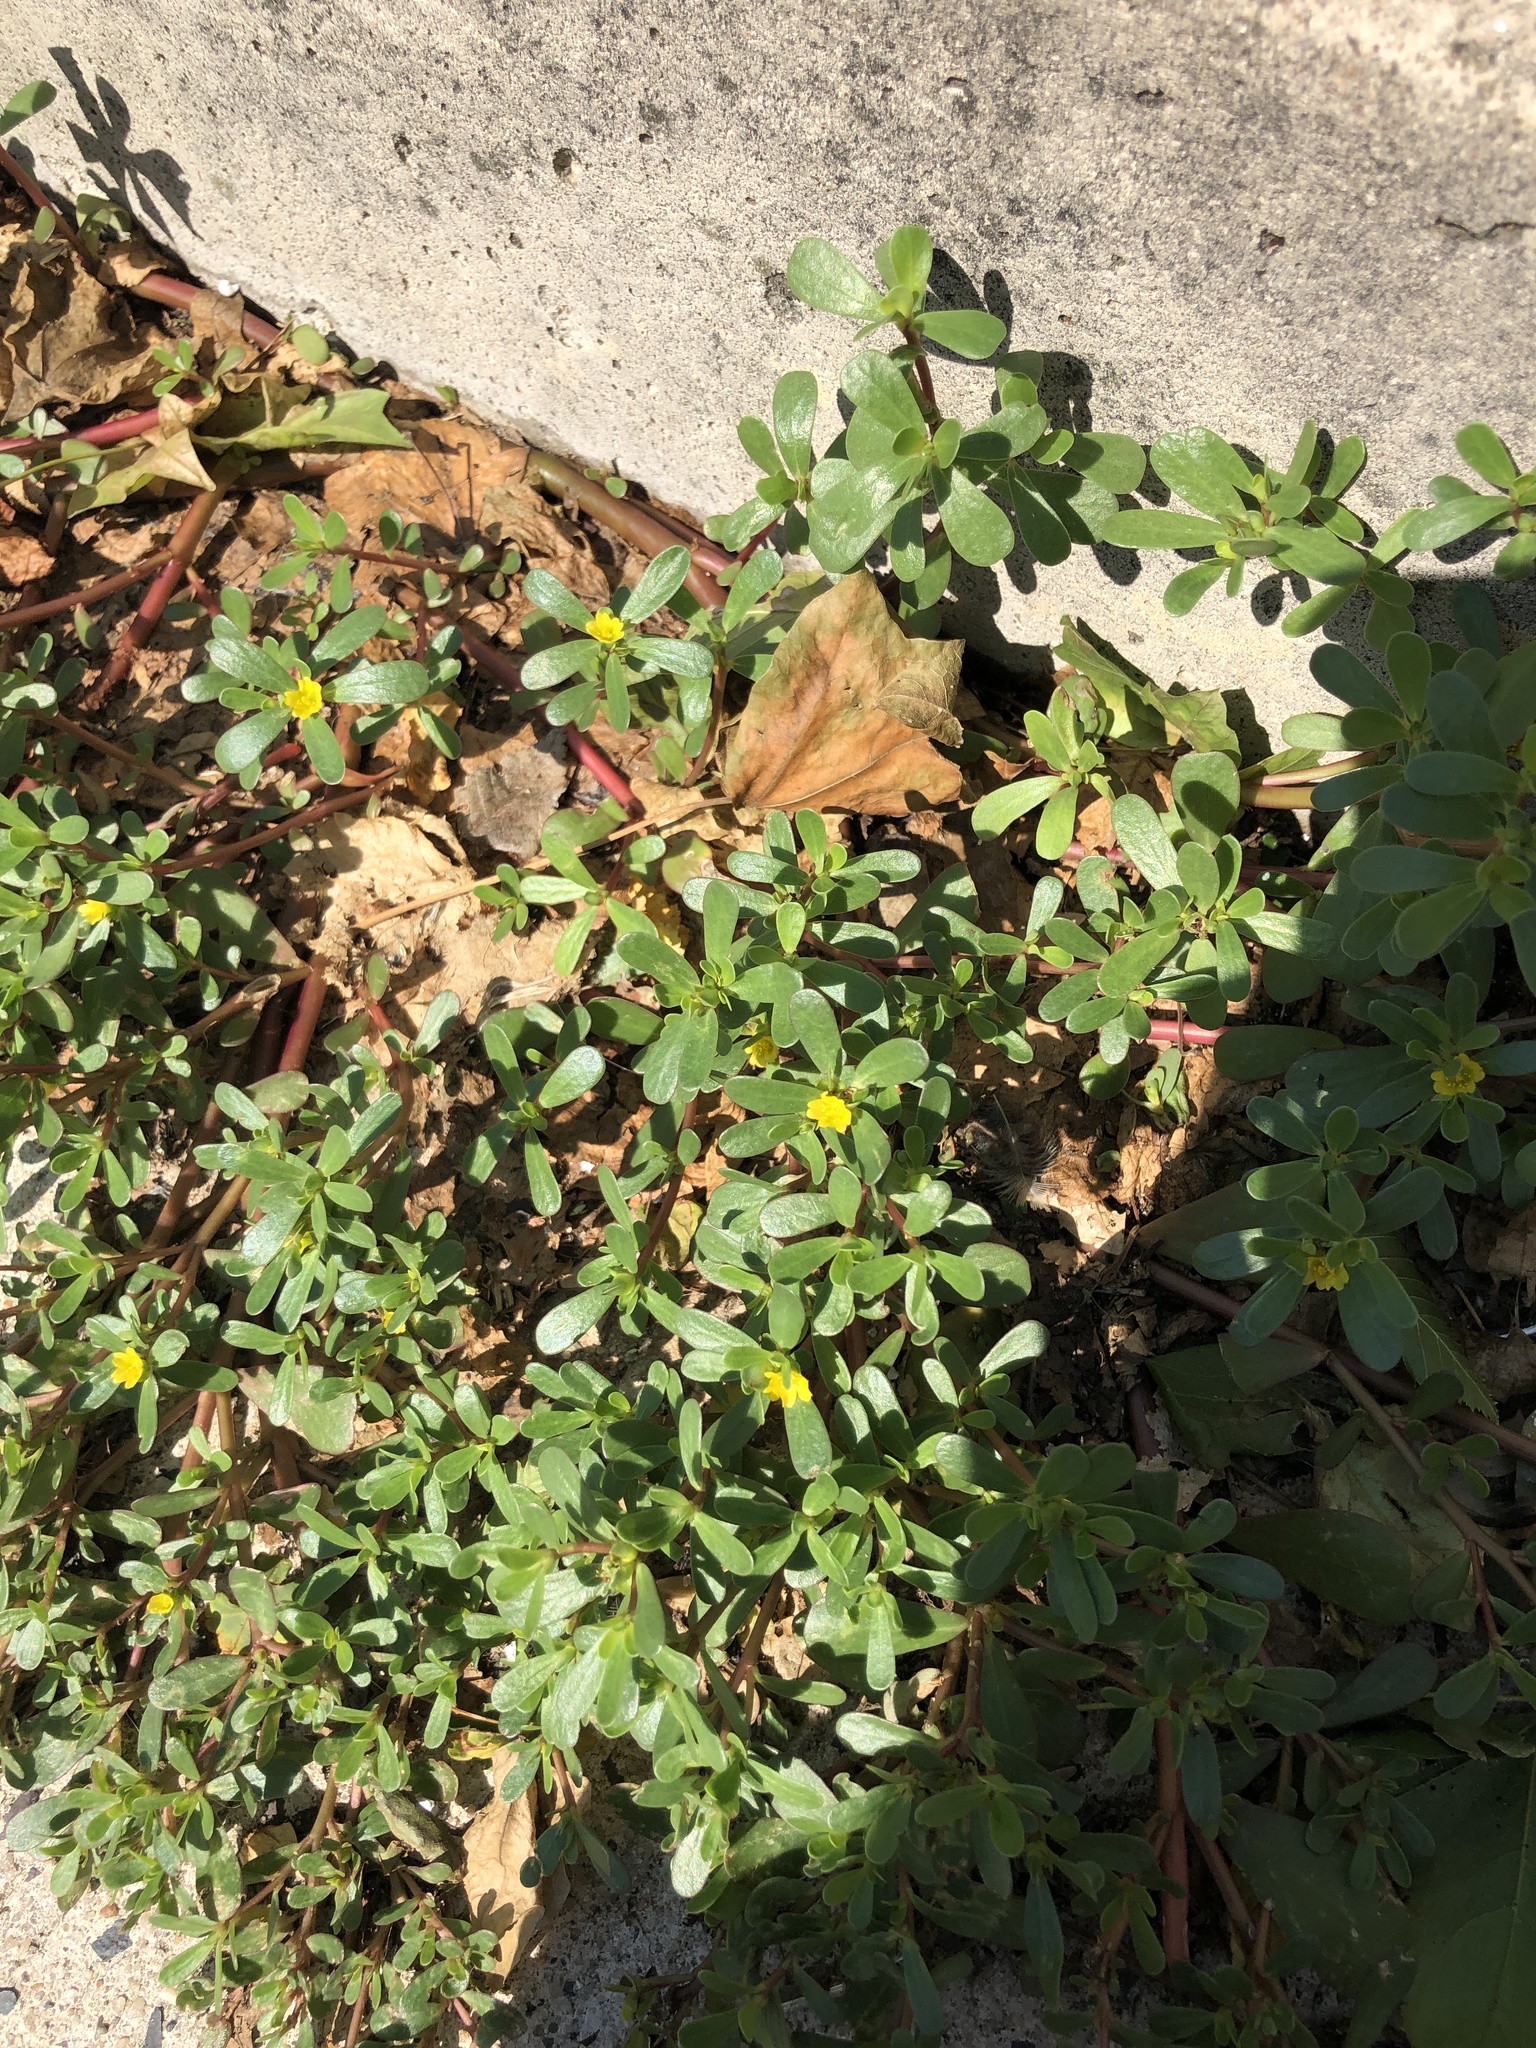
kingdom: Plantae
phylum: Tracheophyta
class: Magnoliopsida
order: Caryophyllales
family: Portulacaceae
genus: Portulaca
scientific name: Portulaca oleracea
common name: Common purslane
